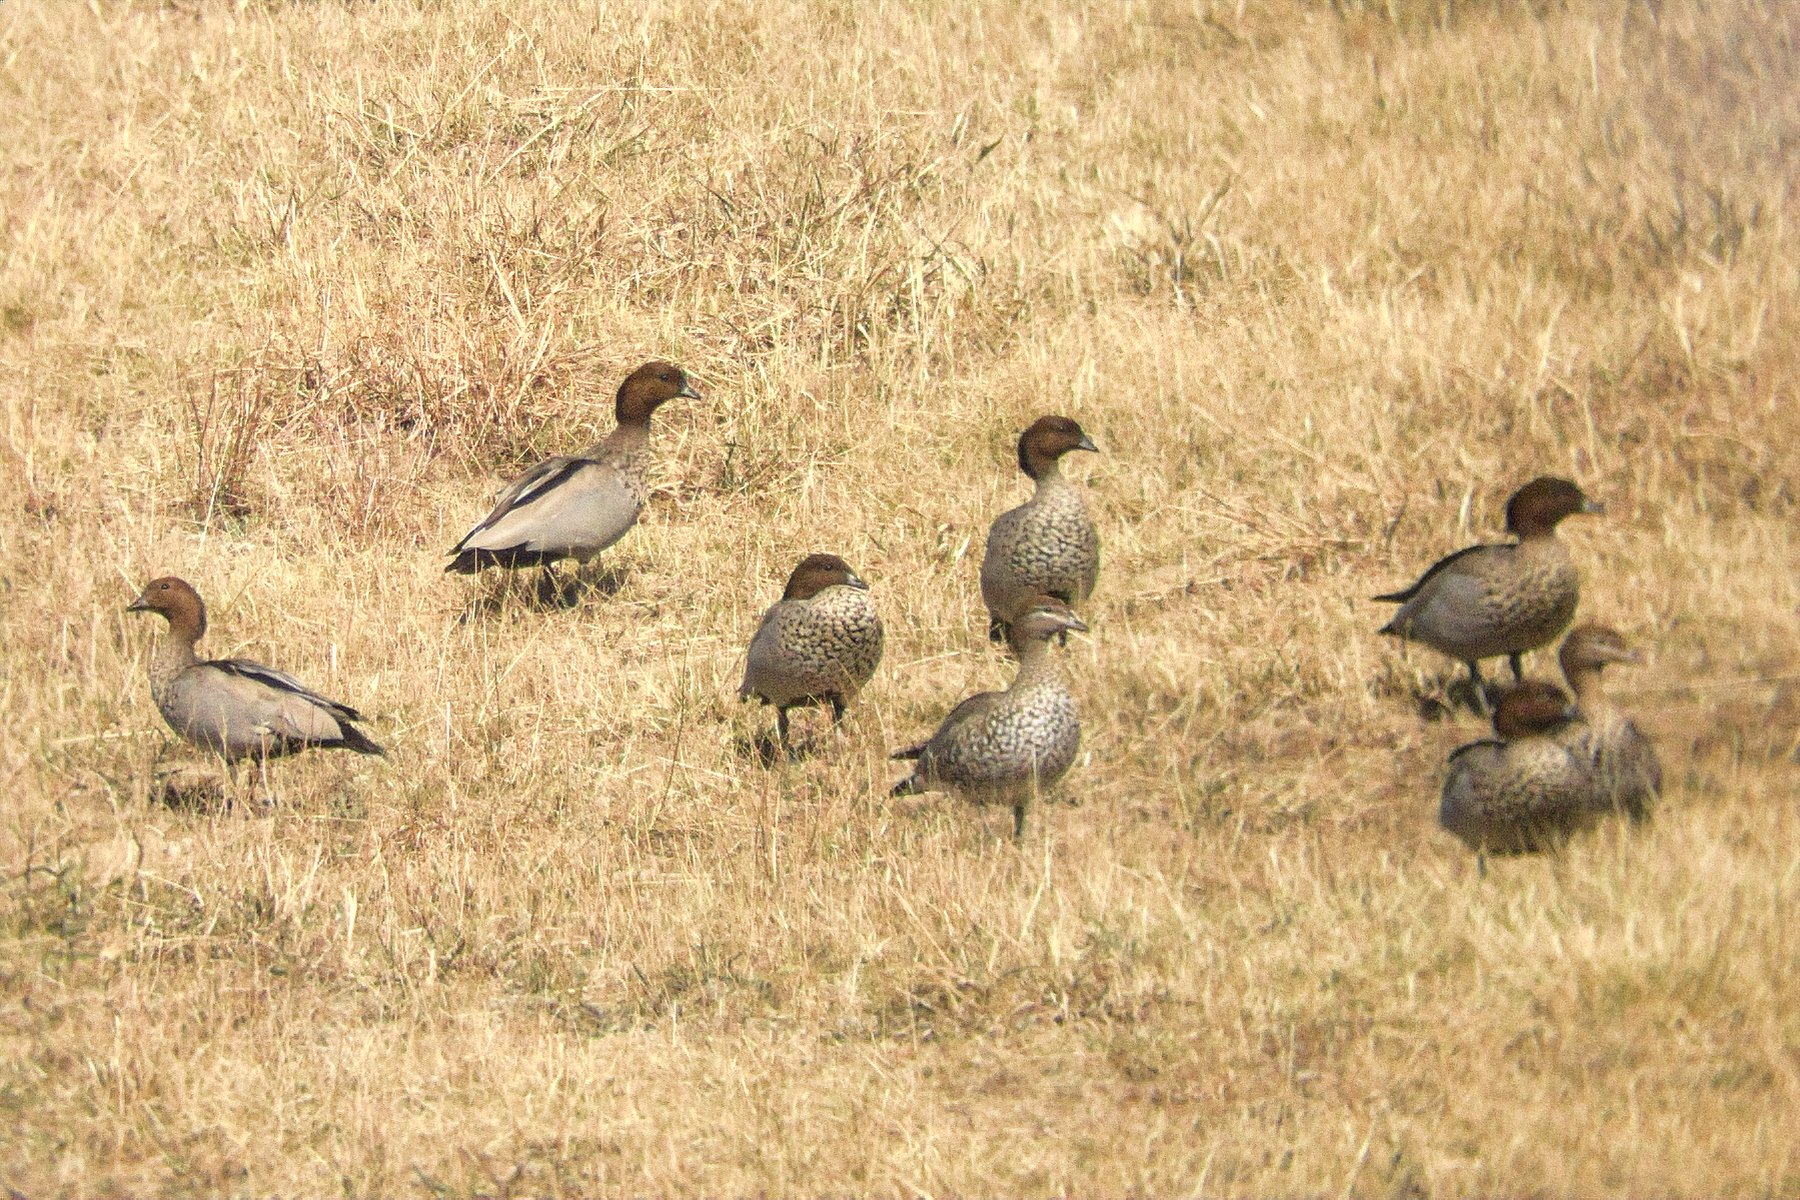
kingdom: Animalia
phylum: Chordata
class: Aves
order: Anseriformes
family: Anatidae
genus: Chenonetta
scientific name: Chenonetta jubata
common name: Maned duck
